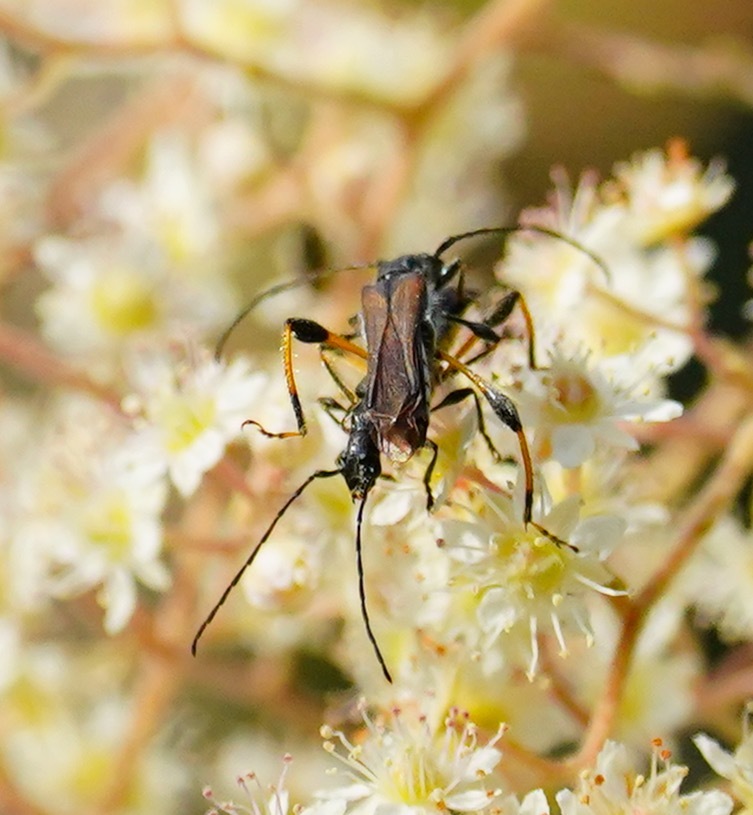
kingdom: Animalia
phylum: Arthropoda
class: Insecta
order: Coleoptera
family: Cerambycidae
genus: Callimoxys
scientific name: Callimoxys fuscipennis
